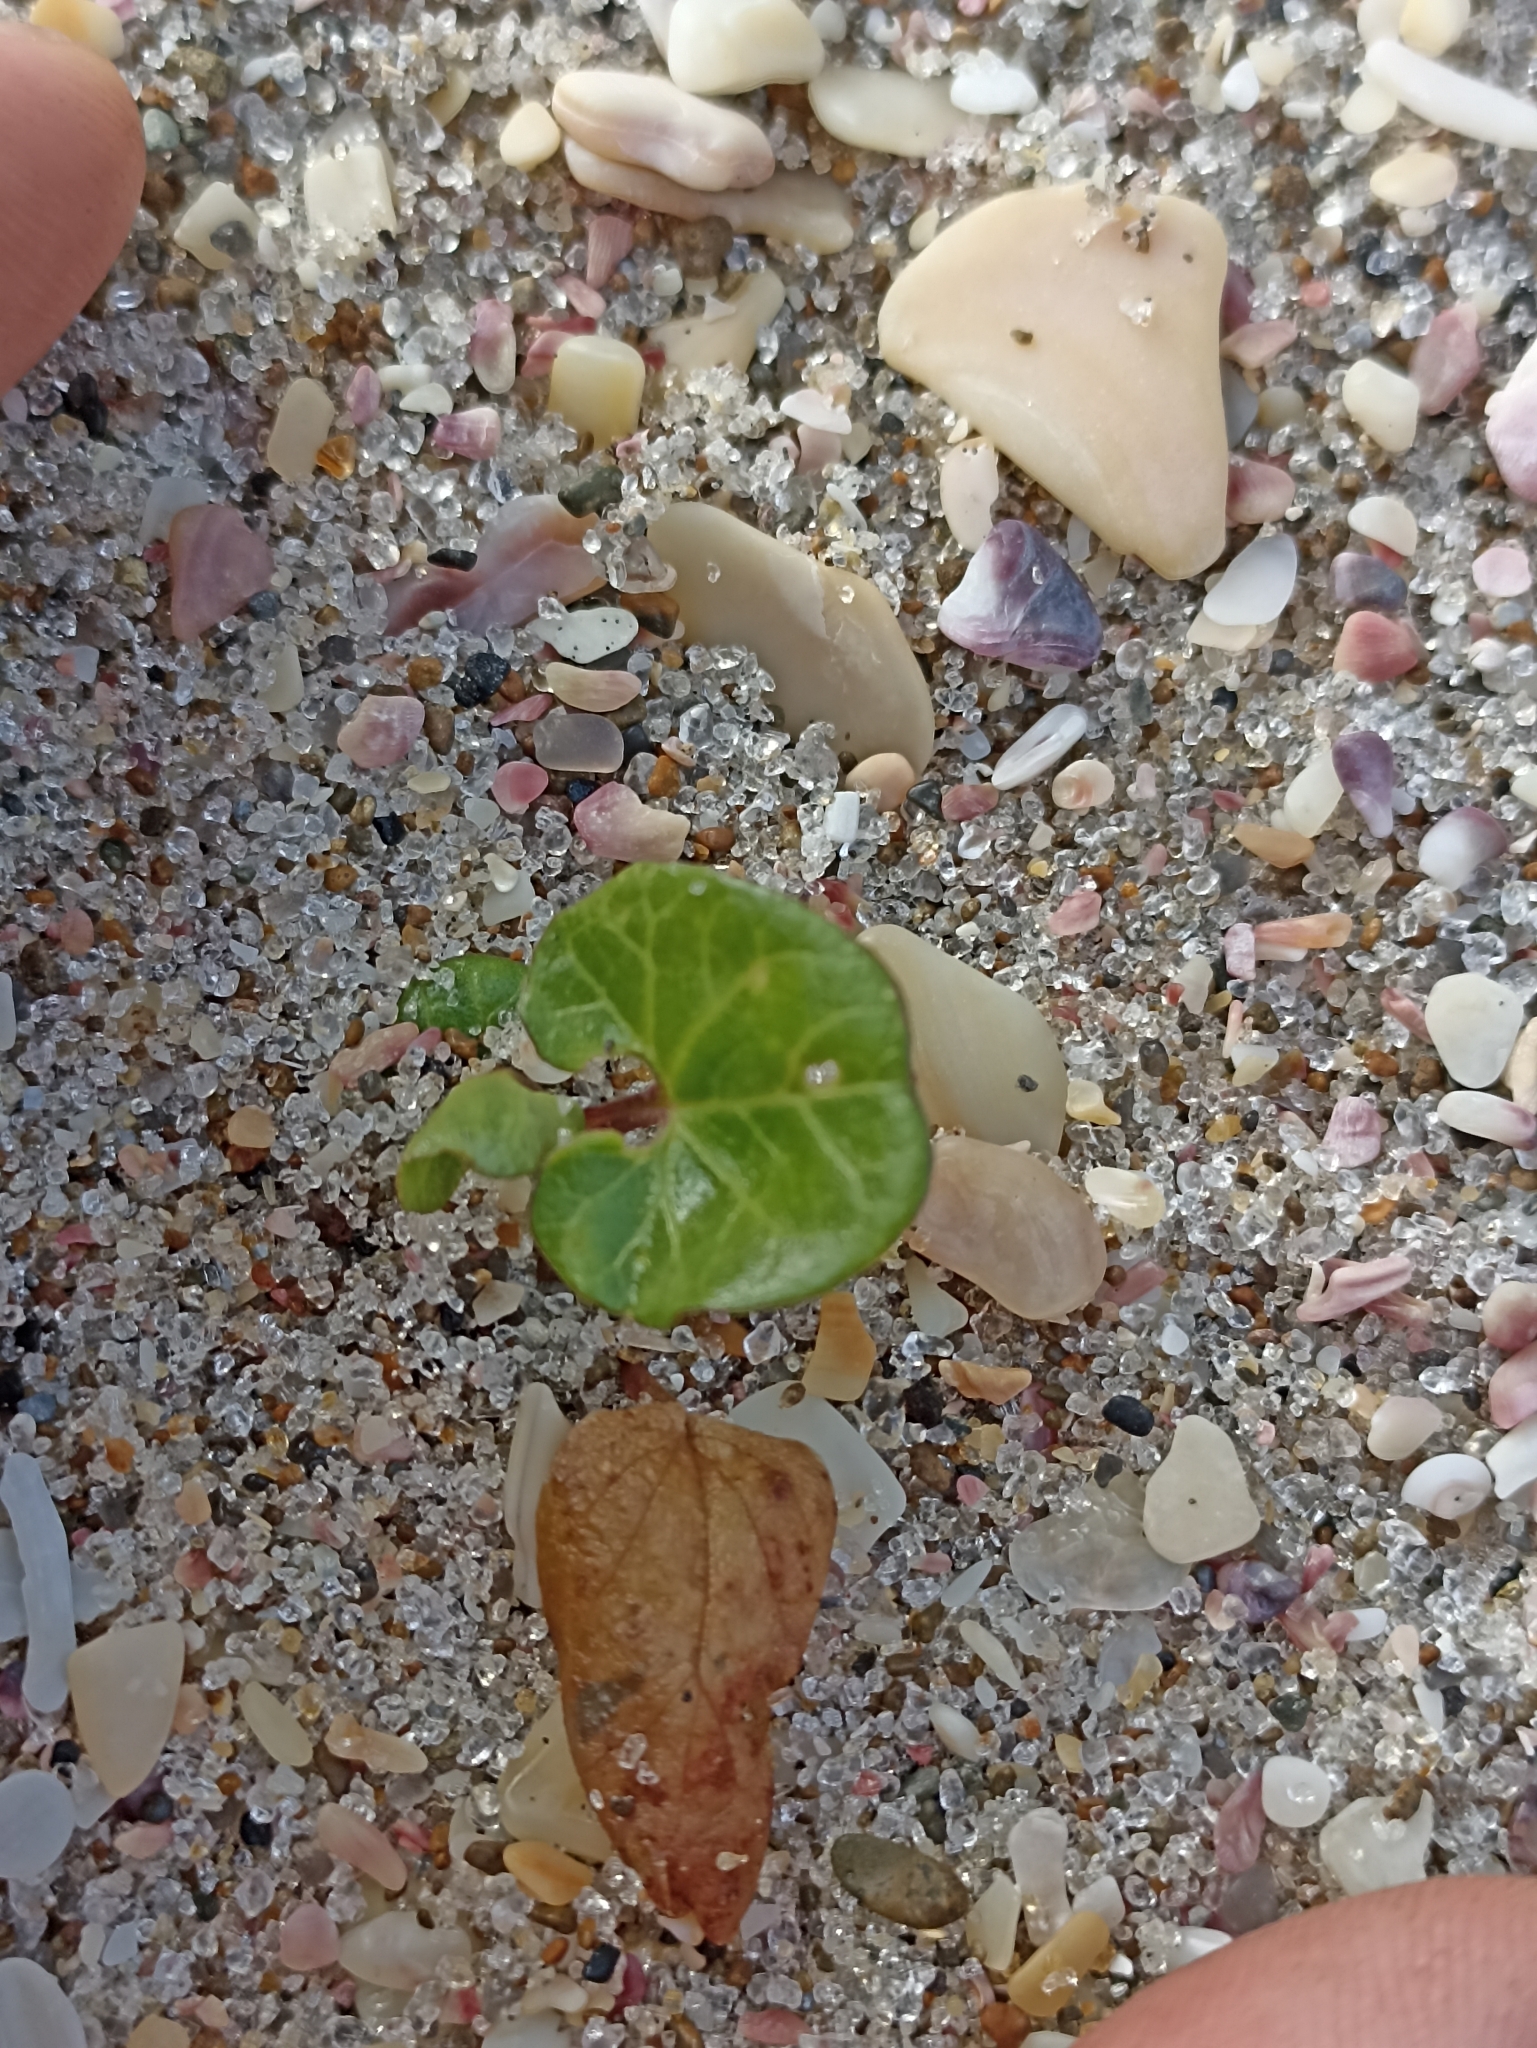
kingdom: Plantae
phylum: Tracheophyta
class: Magnoliopsida
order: Solanales
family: Convolvulaceae
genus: Calystegia
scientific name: Calystegia soldanella
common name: Sea bindweed
